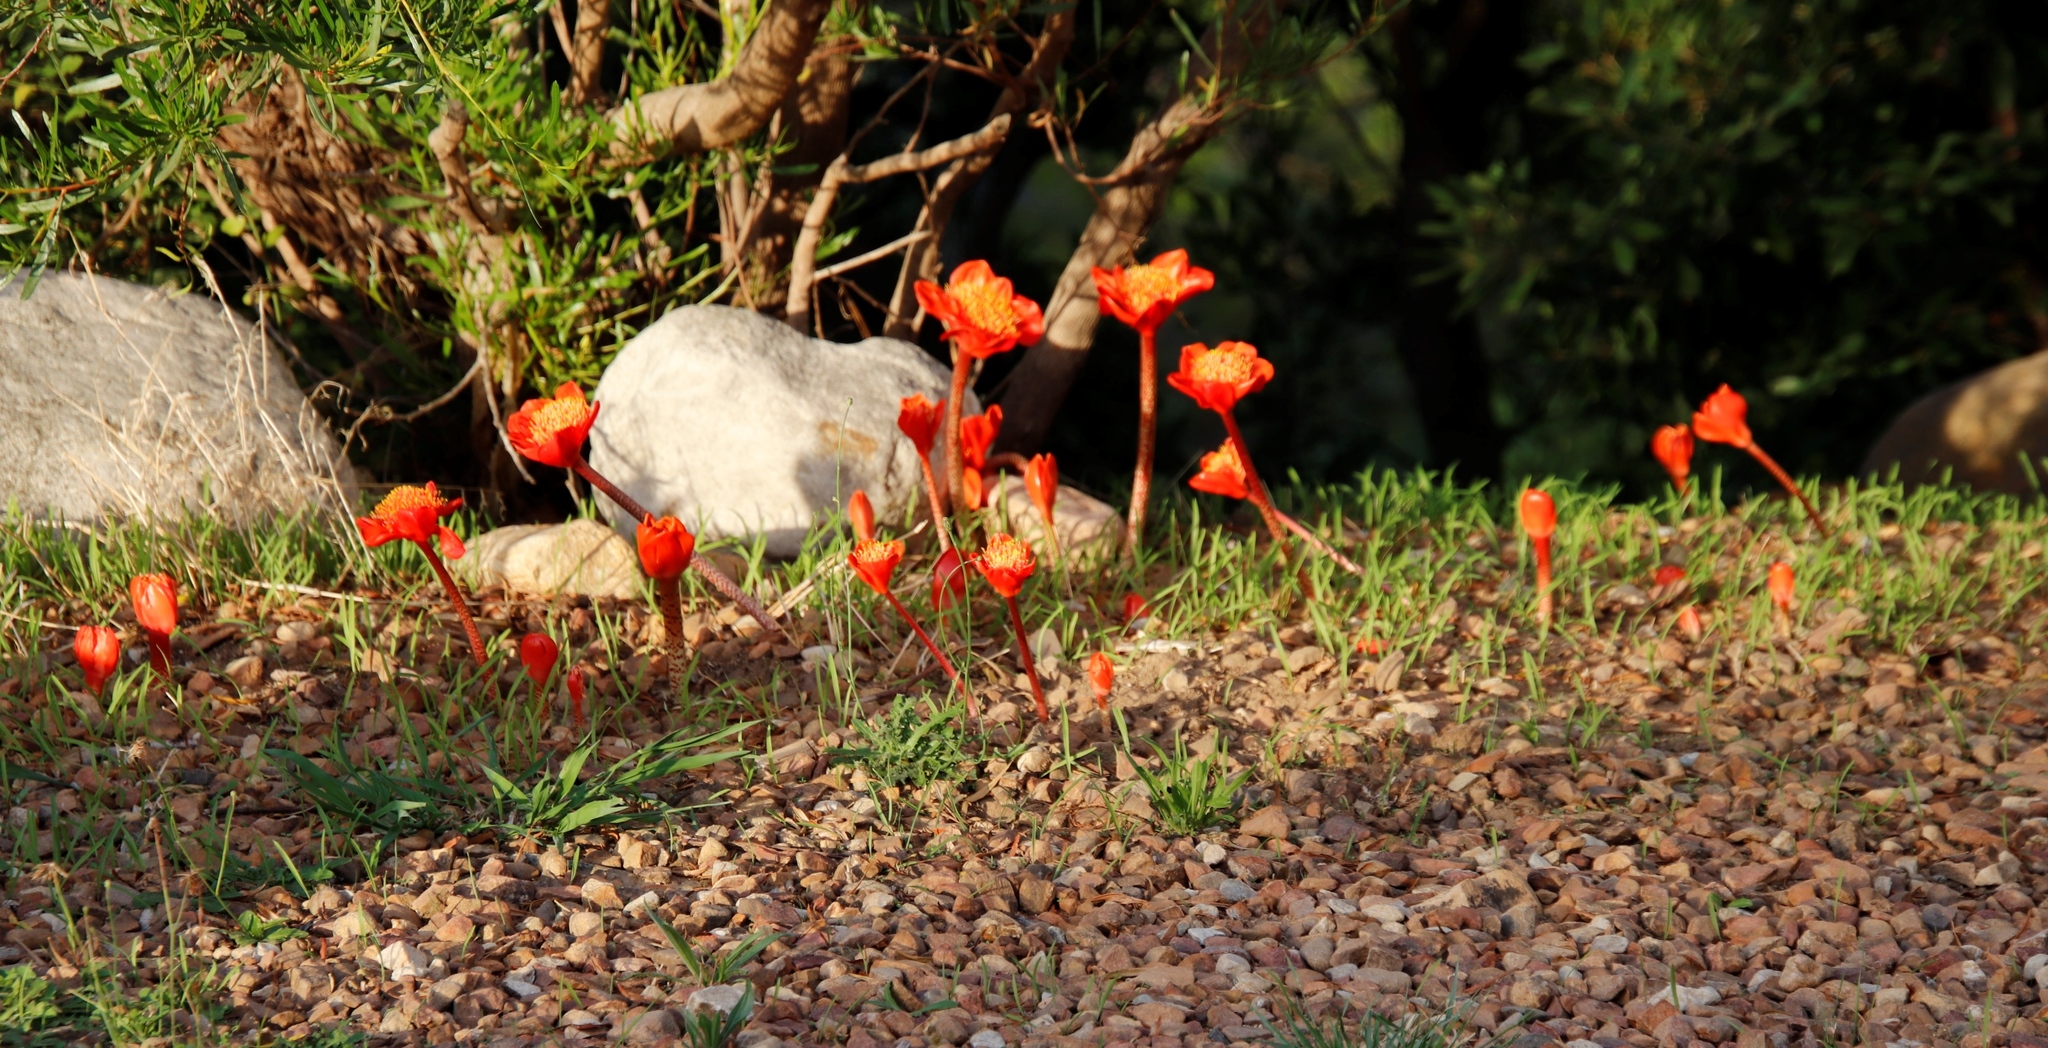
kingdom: Plantae
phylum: Tracheophyta
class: Liliopsida
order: Asparagales
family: Amaryllidaceae
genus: Haemanthus
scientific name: Haemanthus coccineus
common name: Cape-tulip
